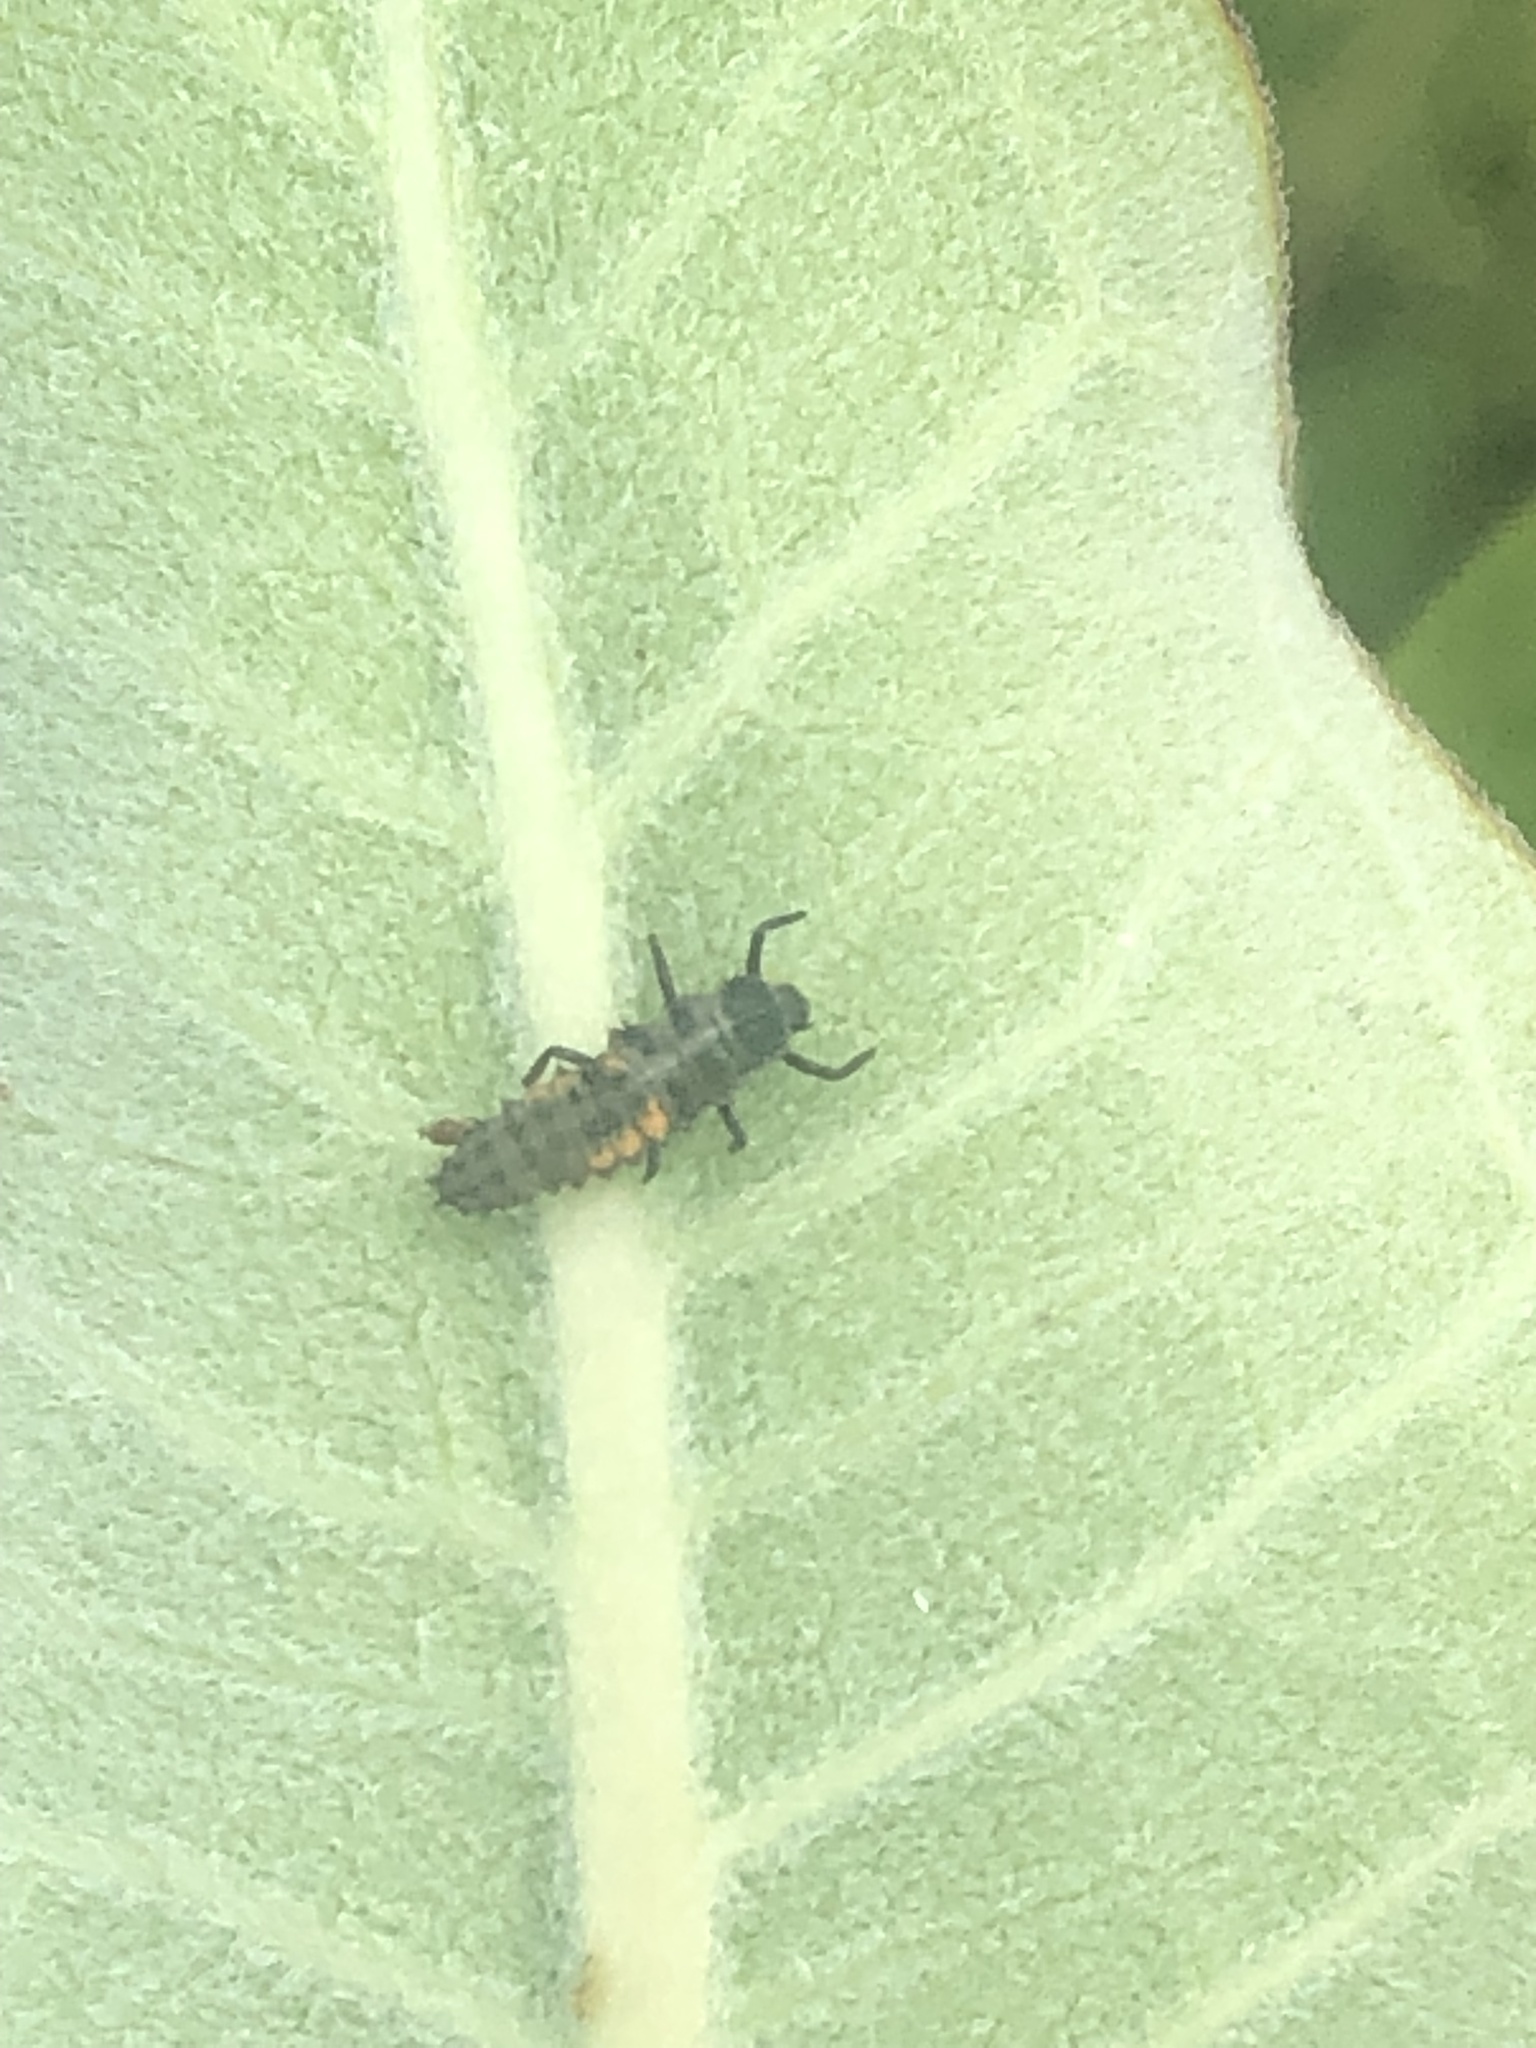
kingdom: Animalia
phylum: Arthropoda
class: Insecta
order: Coleoptera
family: Coccinellidae
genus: Harmonia
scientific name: Harmonia axyridis
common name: Harlequin ladybird
